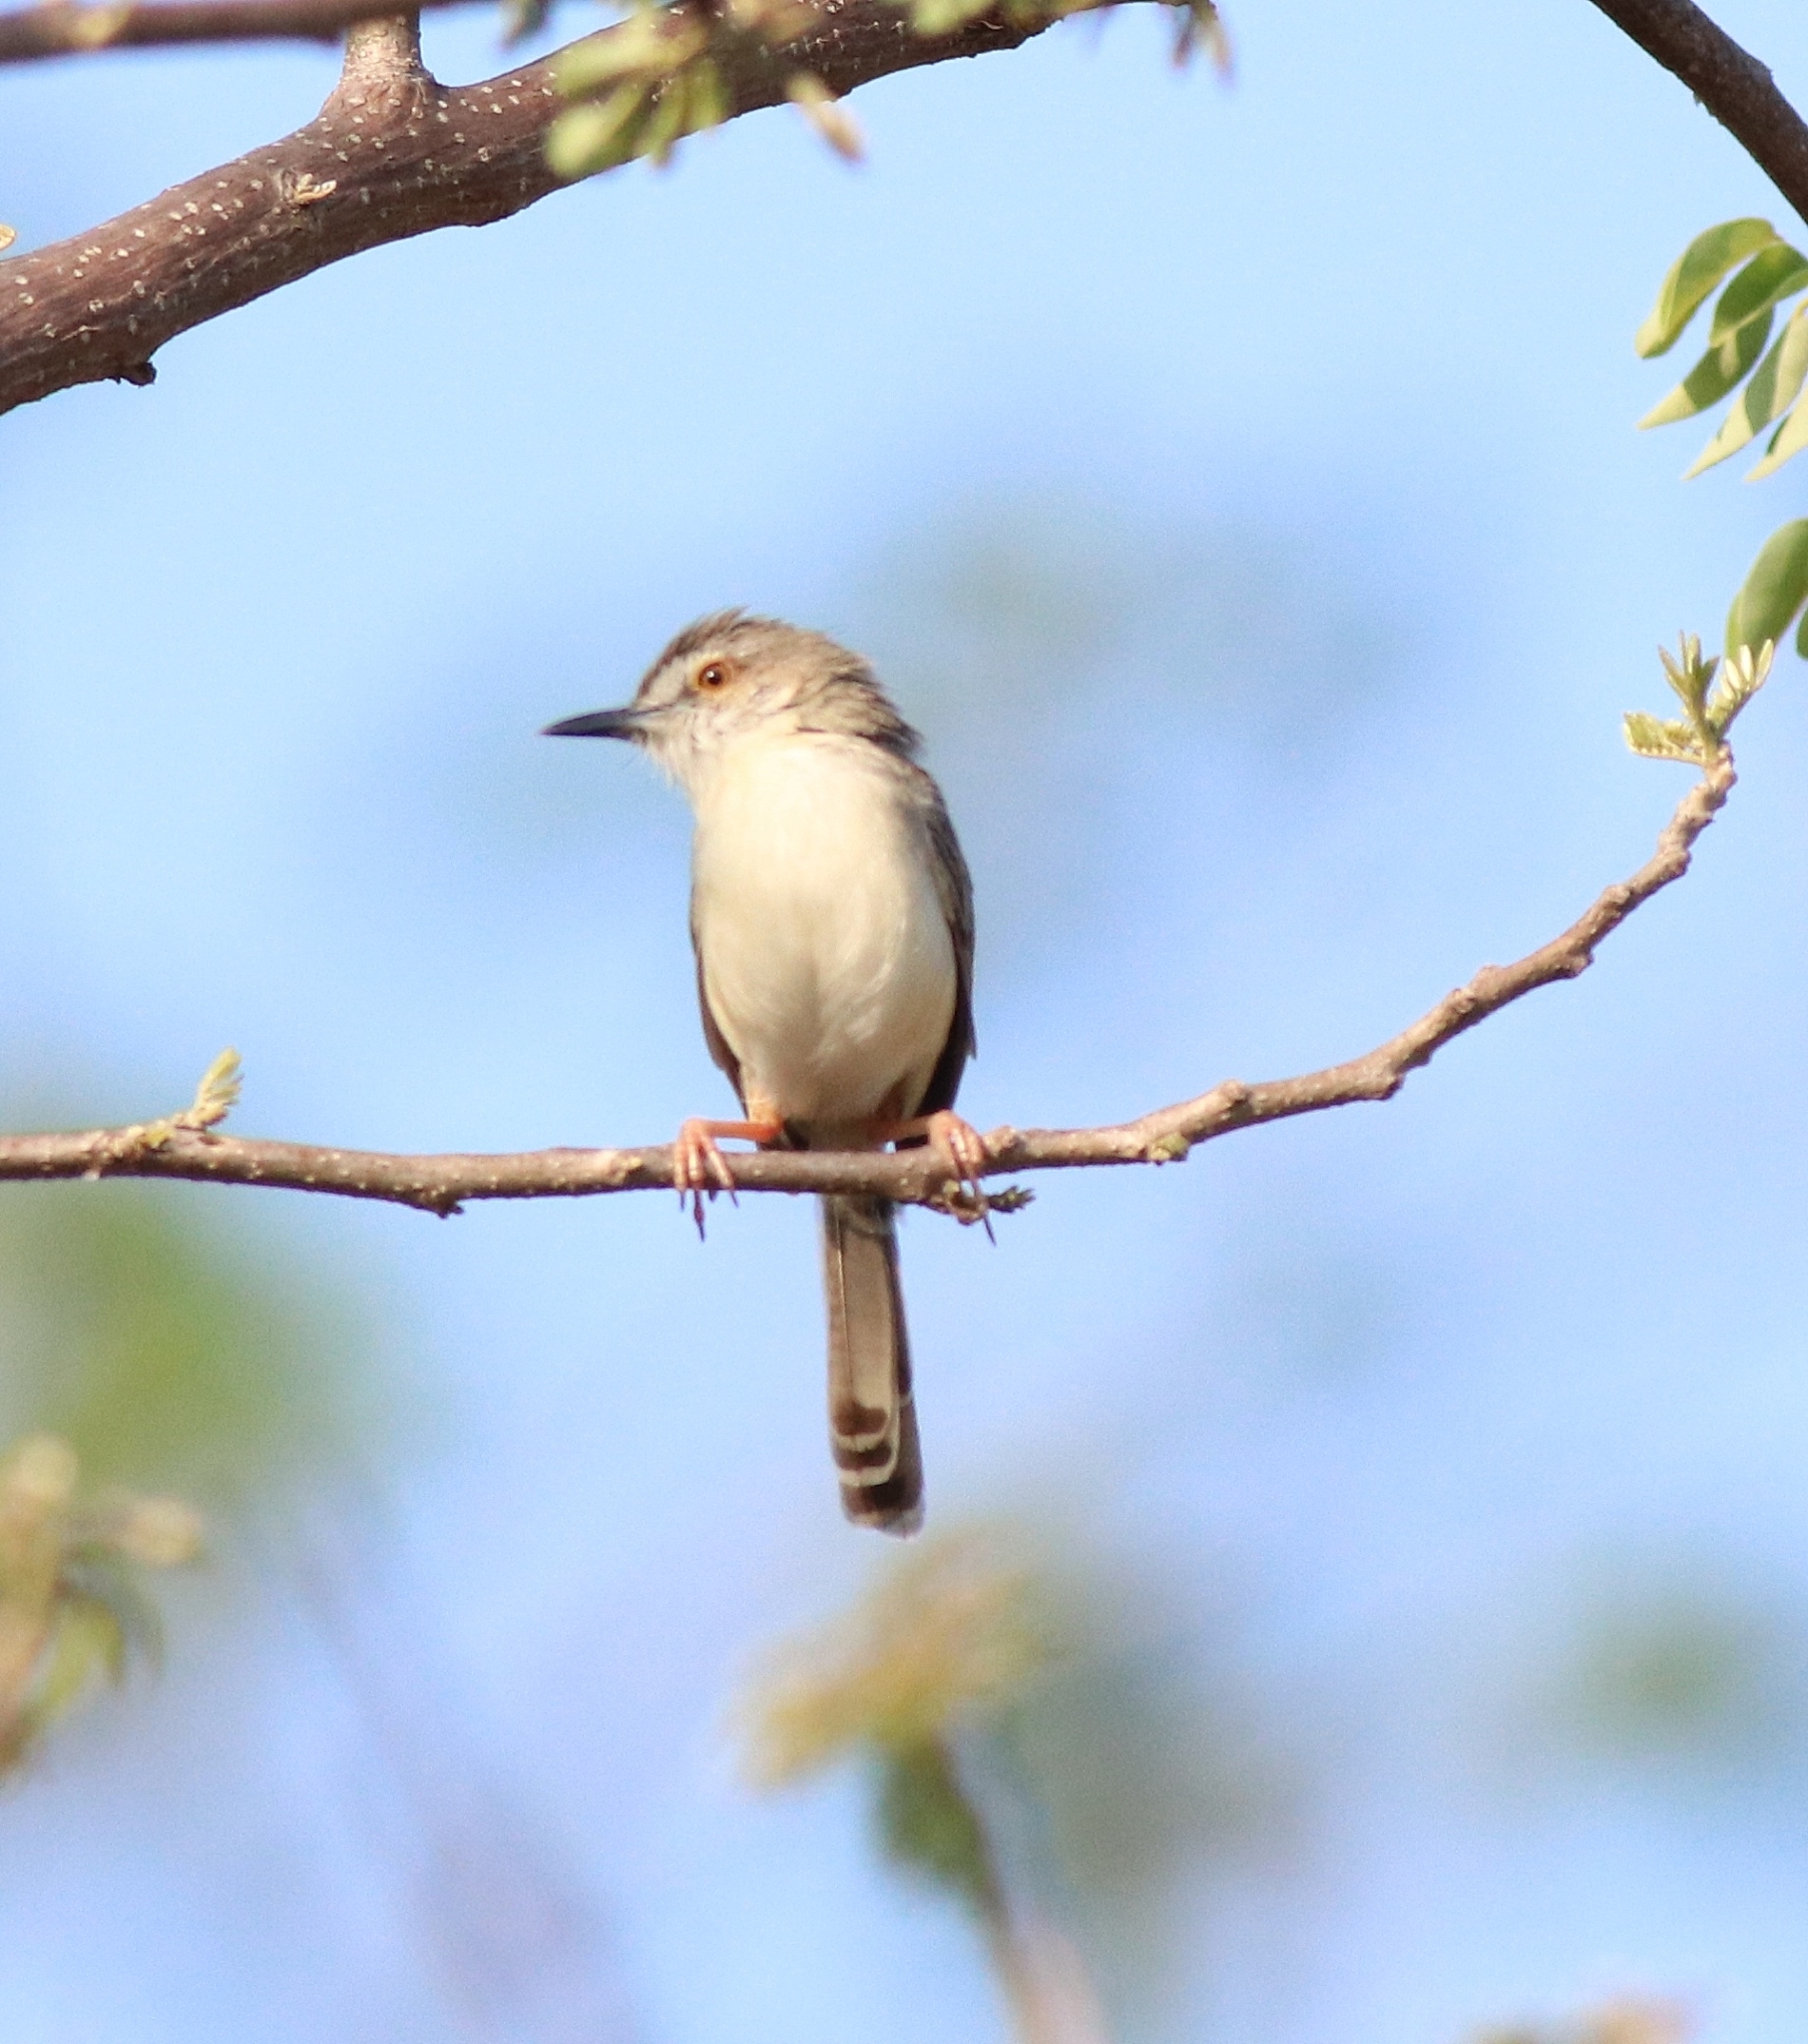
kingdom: Animalia
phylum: Chordata
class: Aves
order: Passeriformes
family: Cisticolidae
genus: Prinia
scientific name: Prinia inornata
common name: Plain prinia
